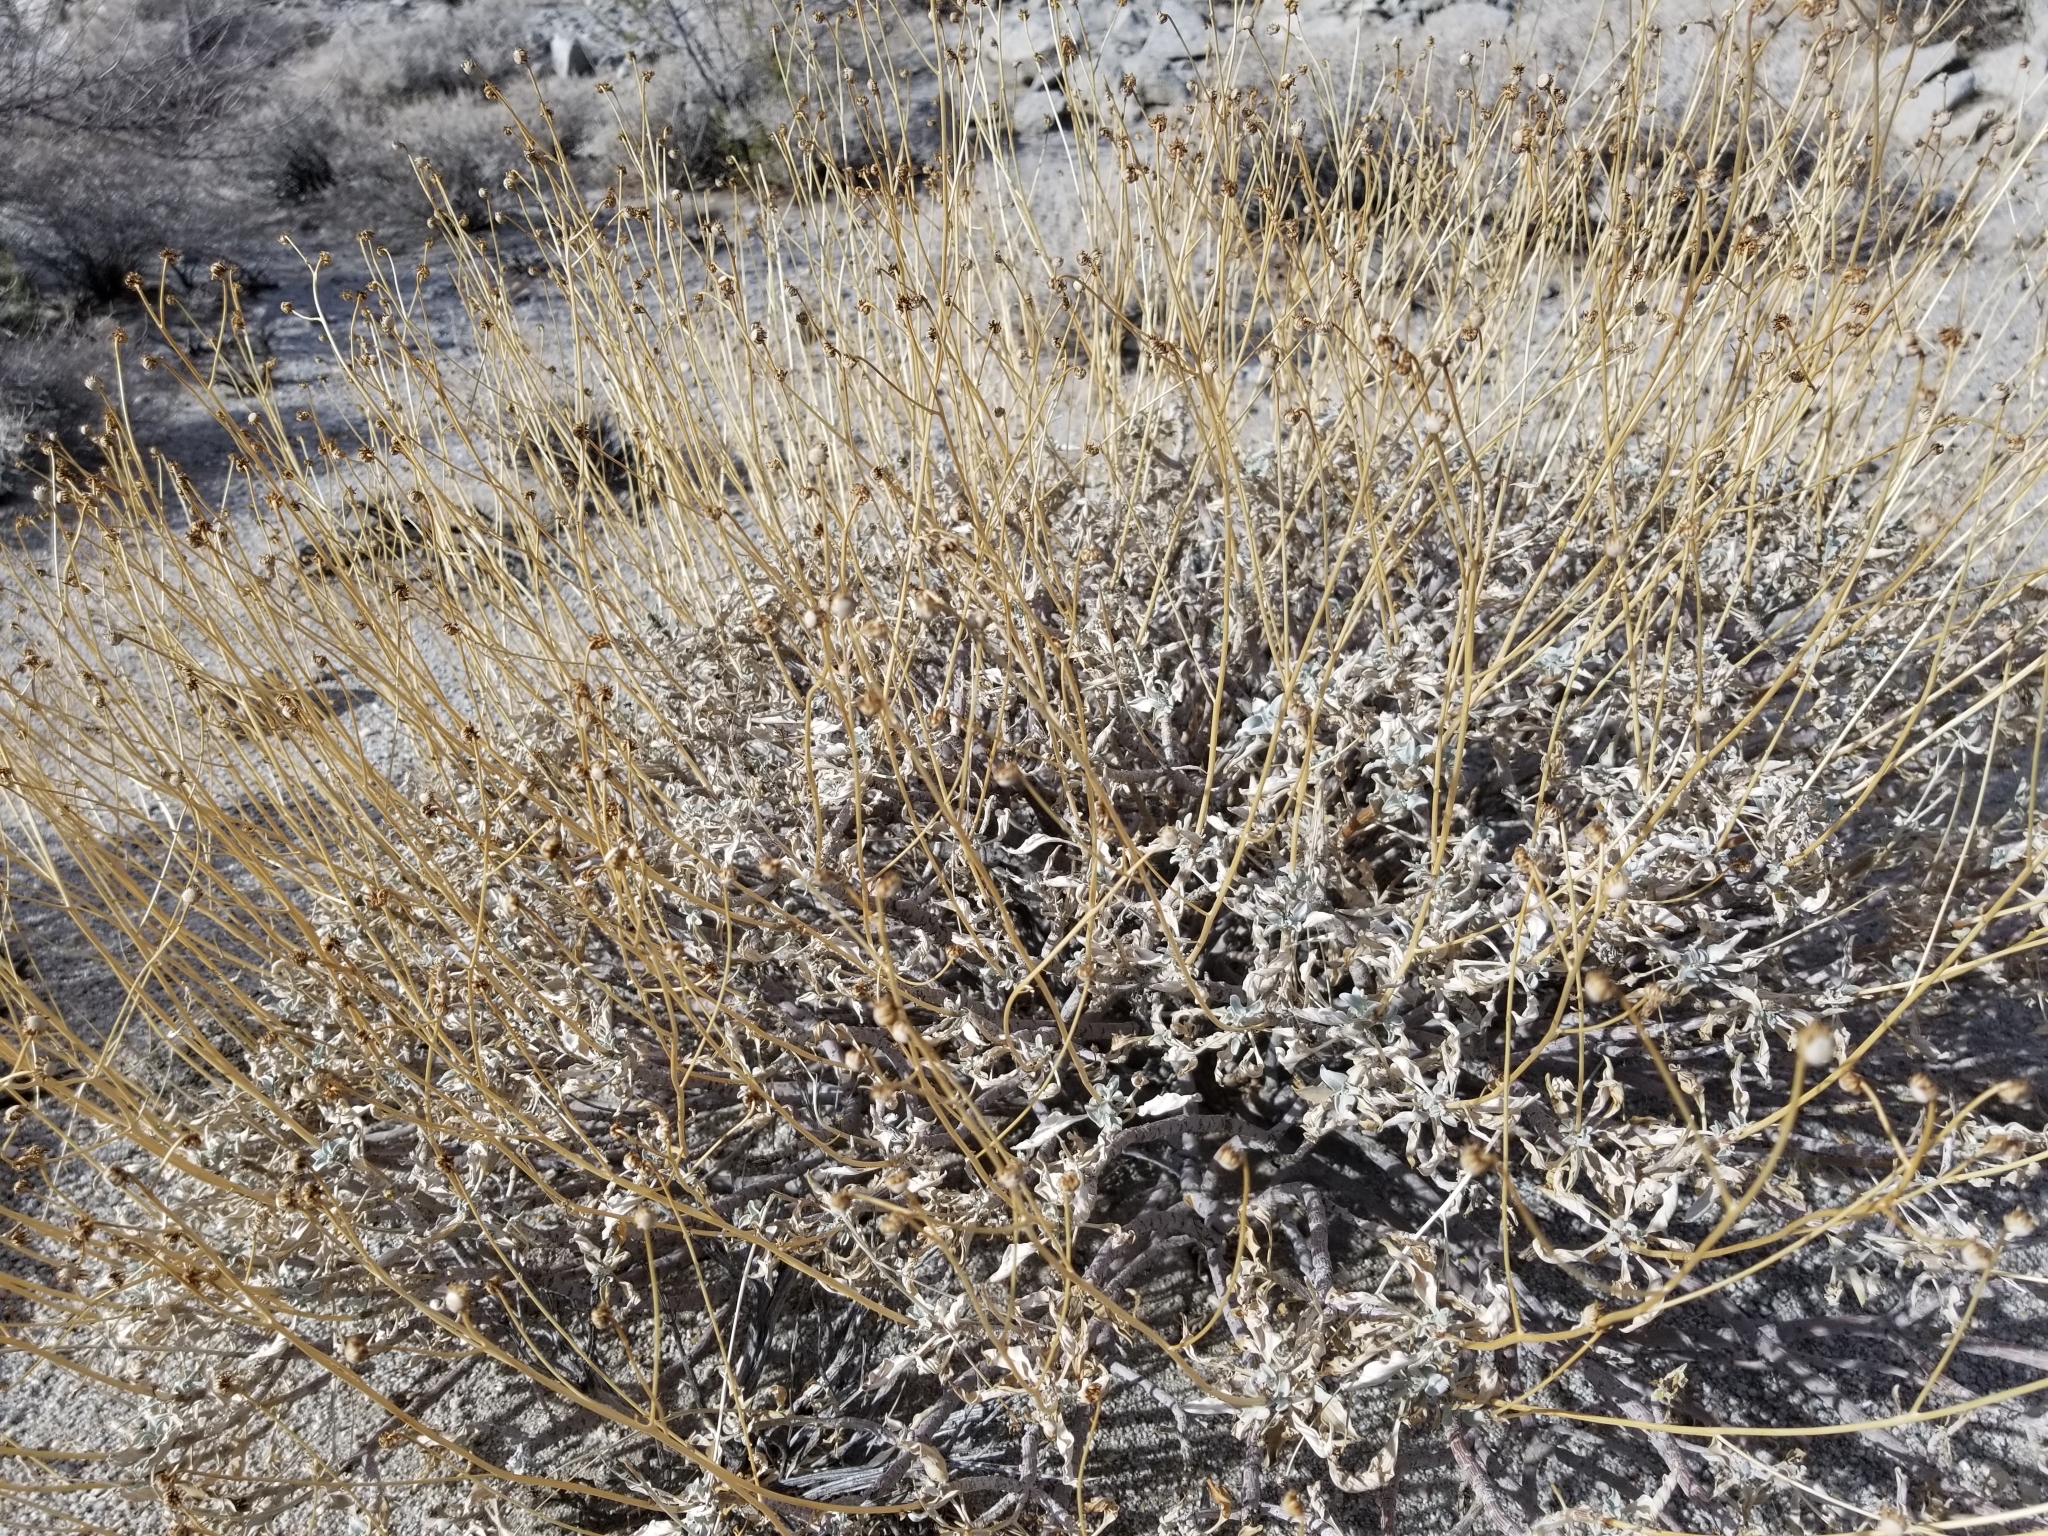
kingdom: Plantae
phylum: Tracheophyta
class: Magnoliopsida
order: Asterales
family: Asteraceae
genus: Encelia
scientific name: Encelia farinosa
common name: Brittlebush
